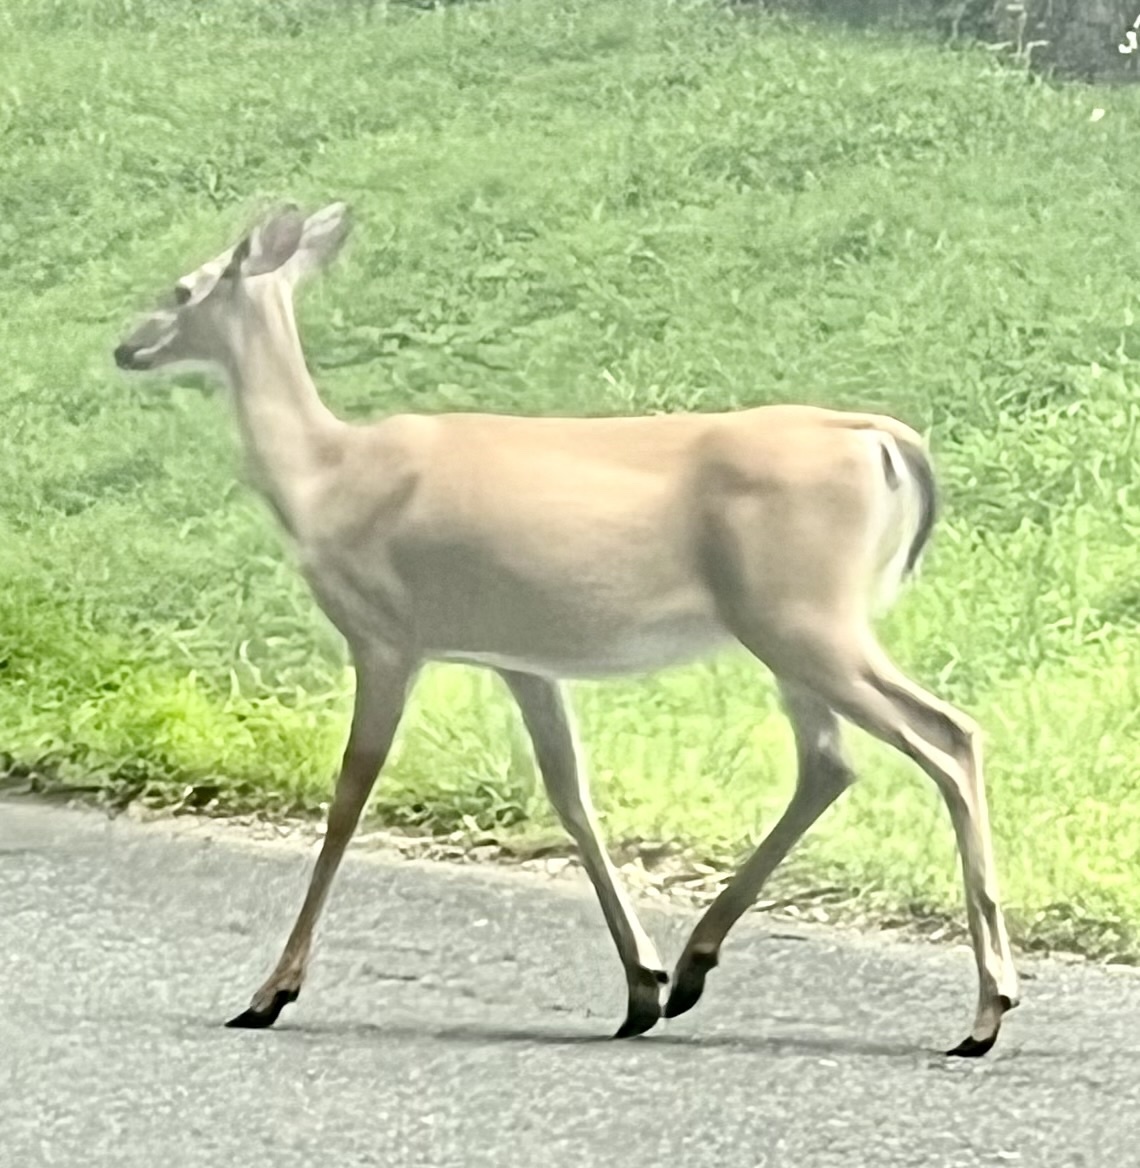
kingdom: Animalia
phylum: Chordata
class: Mammalia
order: Artiodactyla
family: Cervidae
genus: Odocoileus
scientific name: Odocoileus virginianus
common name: White-tailed deer
